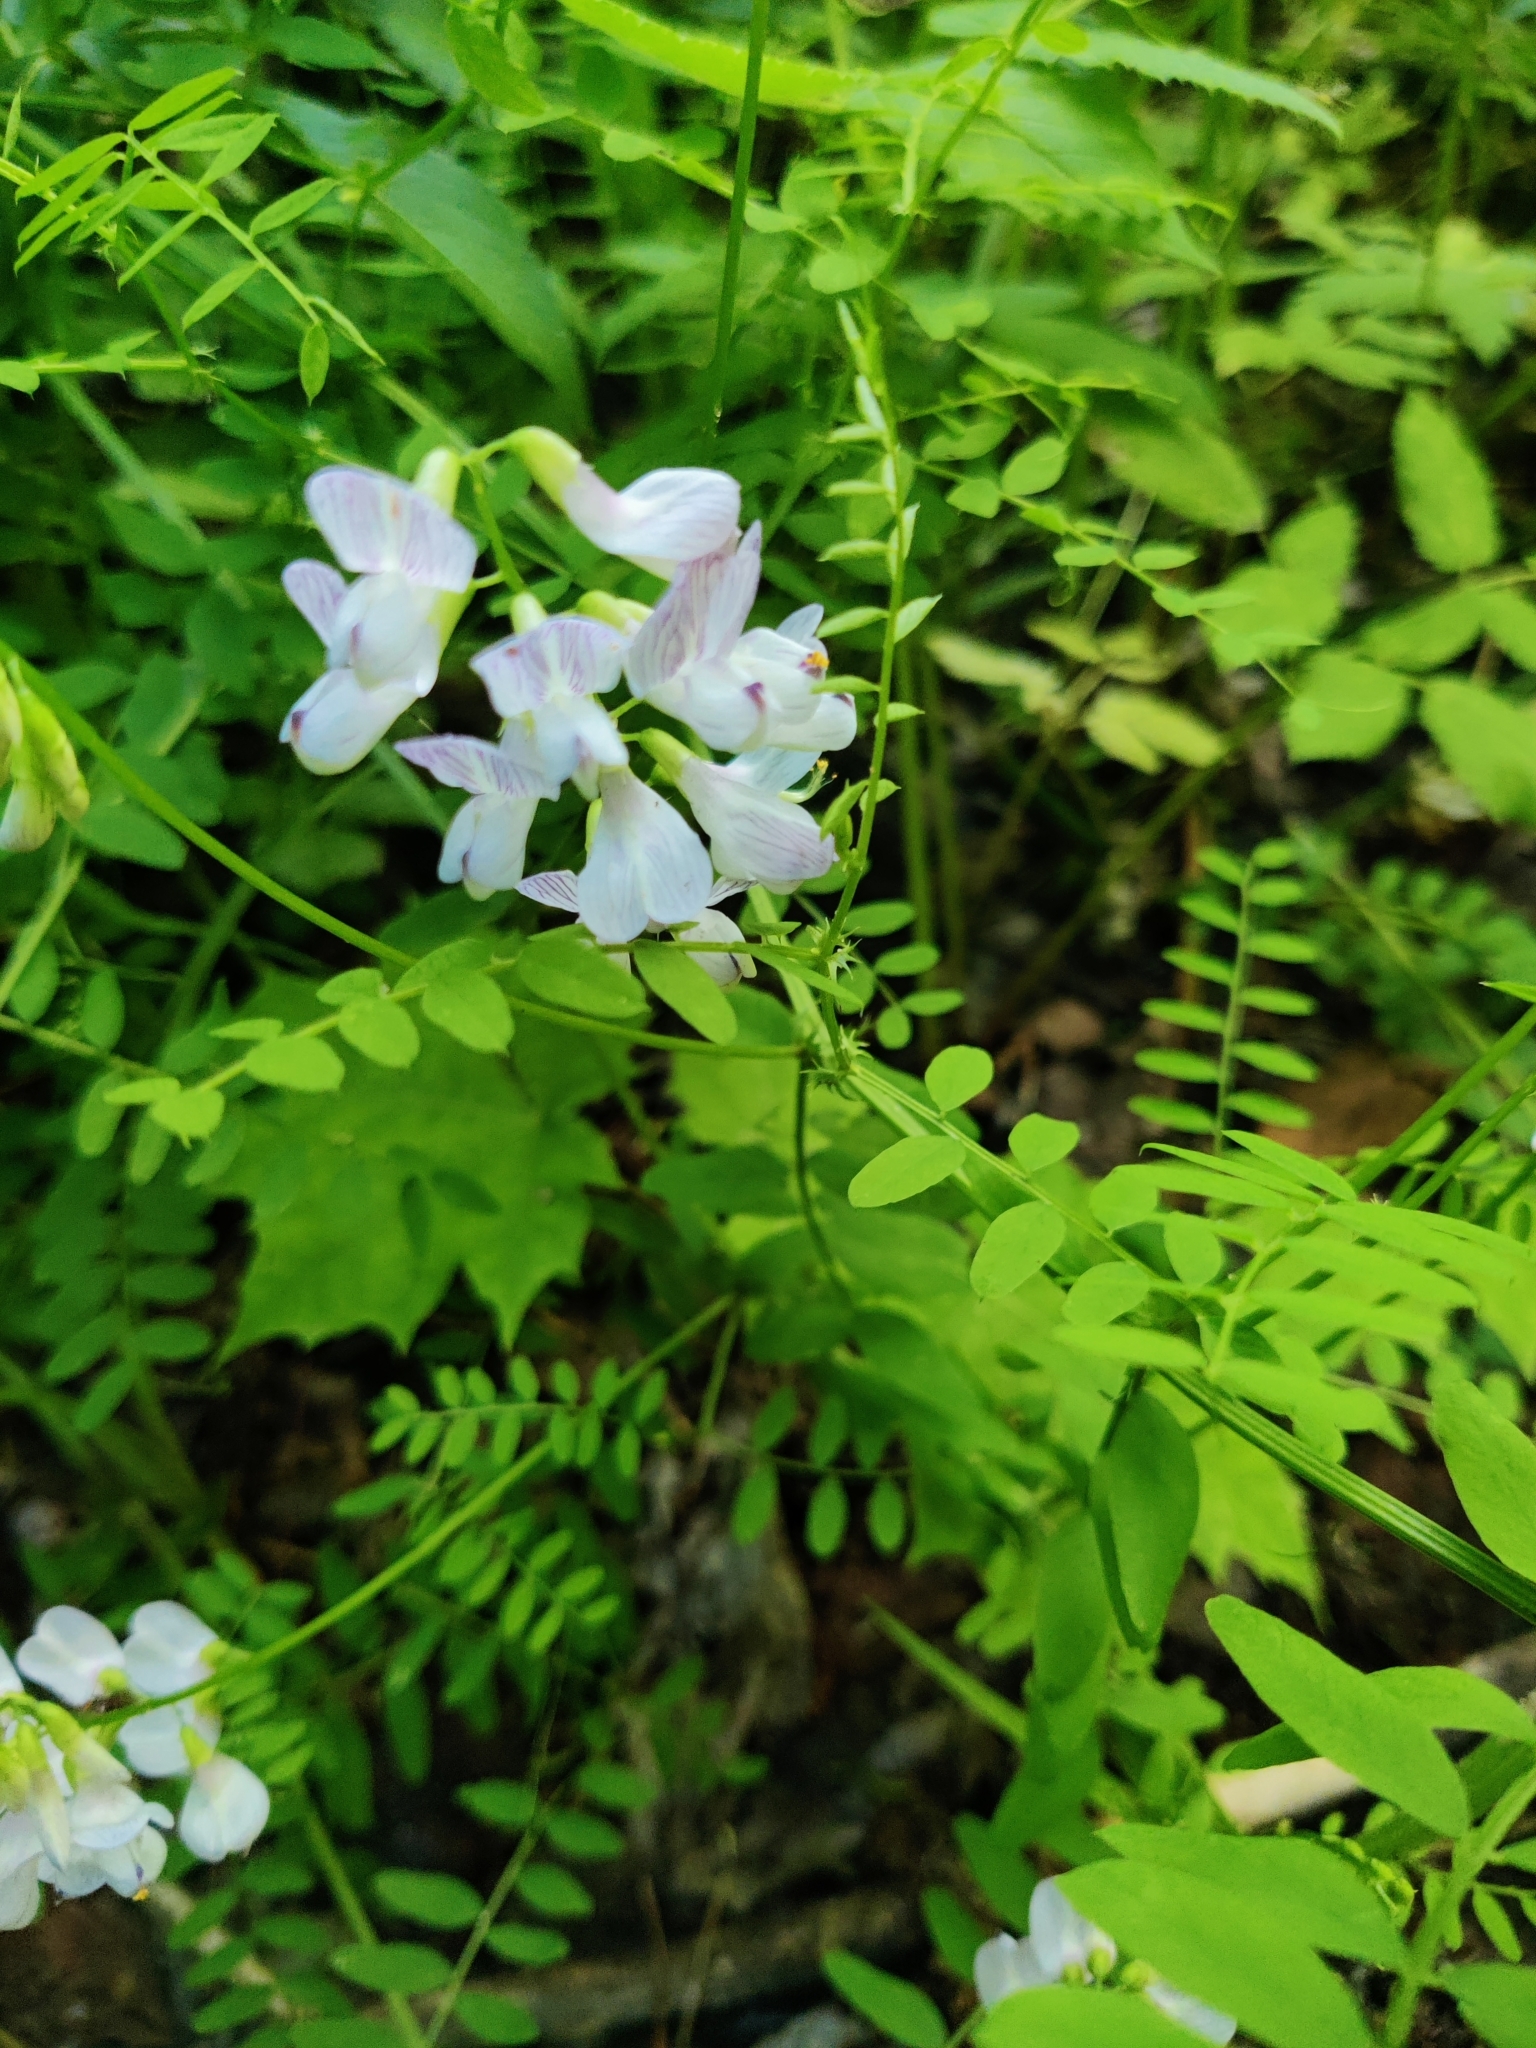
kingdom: Plantae
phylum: Tracheophyta
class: Magnoliopsida
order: Fabales
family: Fabaceae
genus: Vicia
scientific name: Vicia sylvatica
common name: Wood vetch
